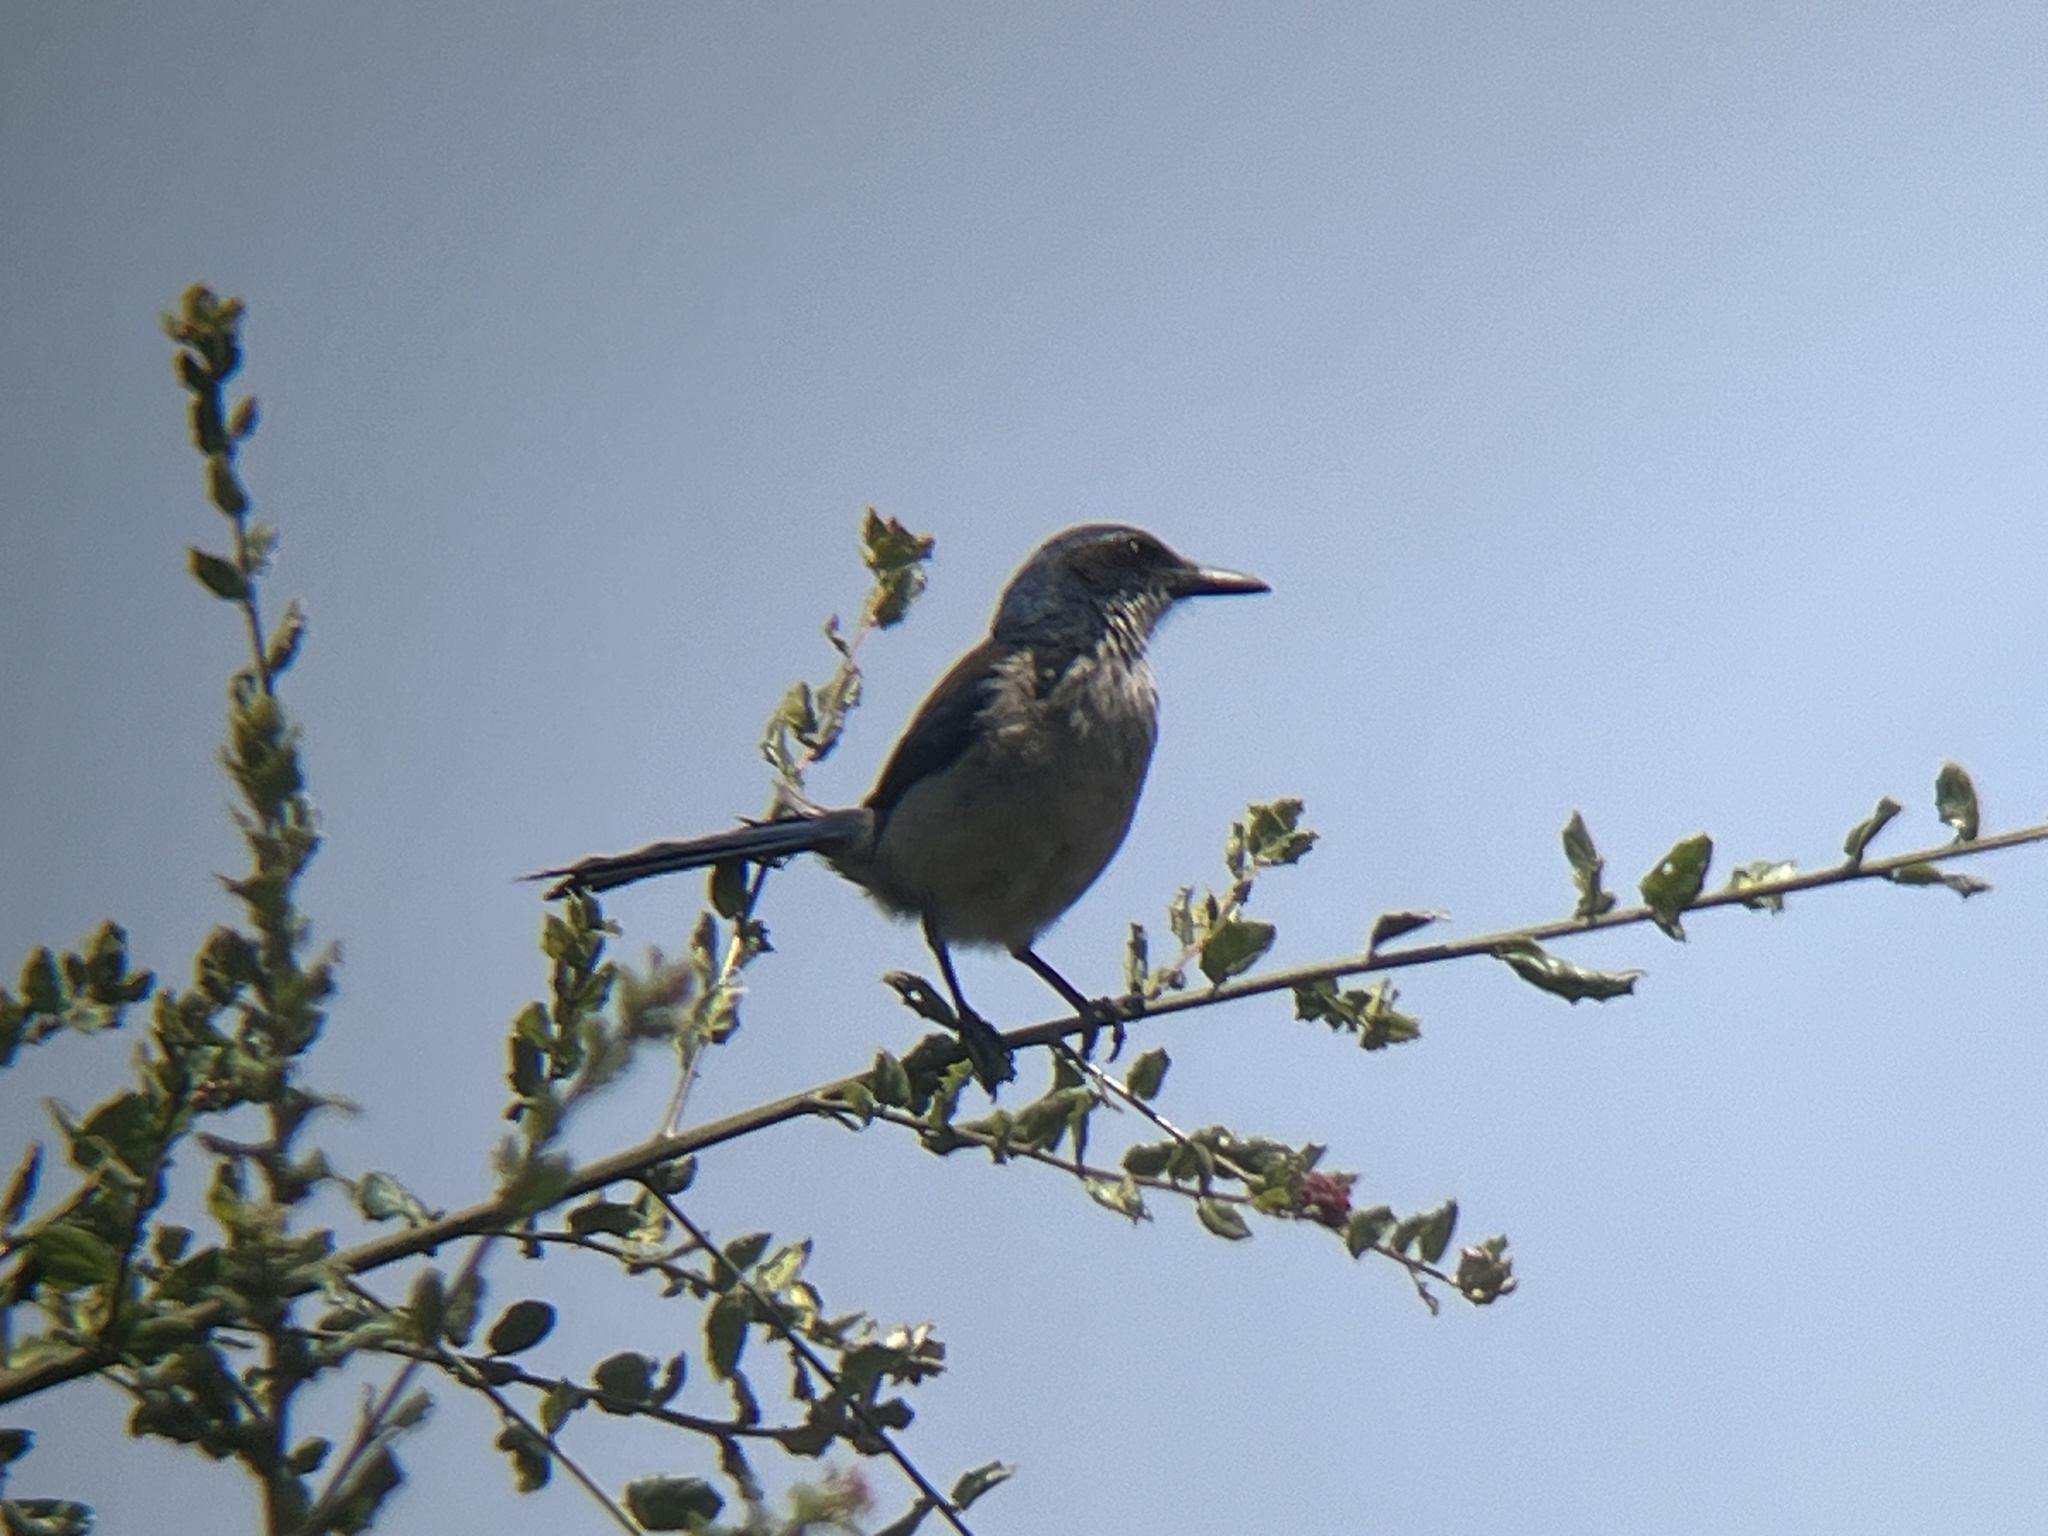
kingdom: Animalia
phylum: Chordata
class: Aves
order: Passeriformes
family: Corvidae
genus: Aphelocoma
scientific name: Aphelocoma insularis
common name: Island scrub-jay
